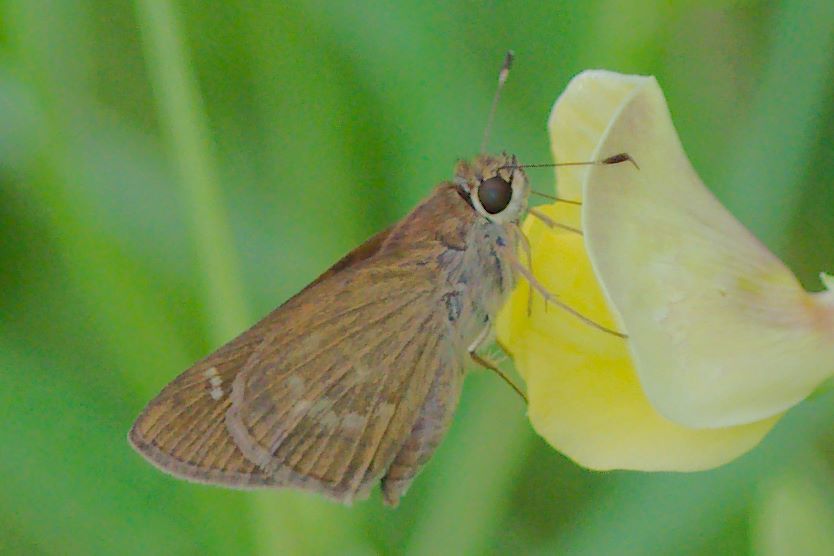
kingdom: Animalia
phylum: Arthropoda
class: Insecta
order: Lepidoptera
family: Hesperiidae
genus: Cymaenes
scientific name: Cymaenes tripunctus
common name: Dingy dotted skipper
